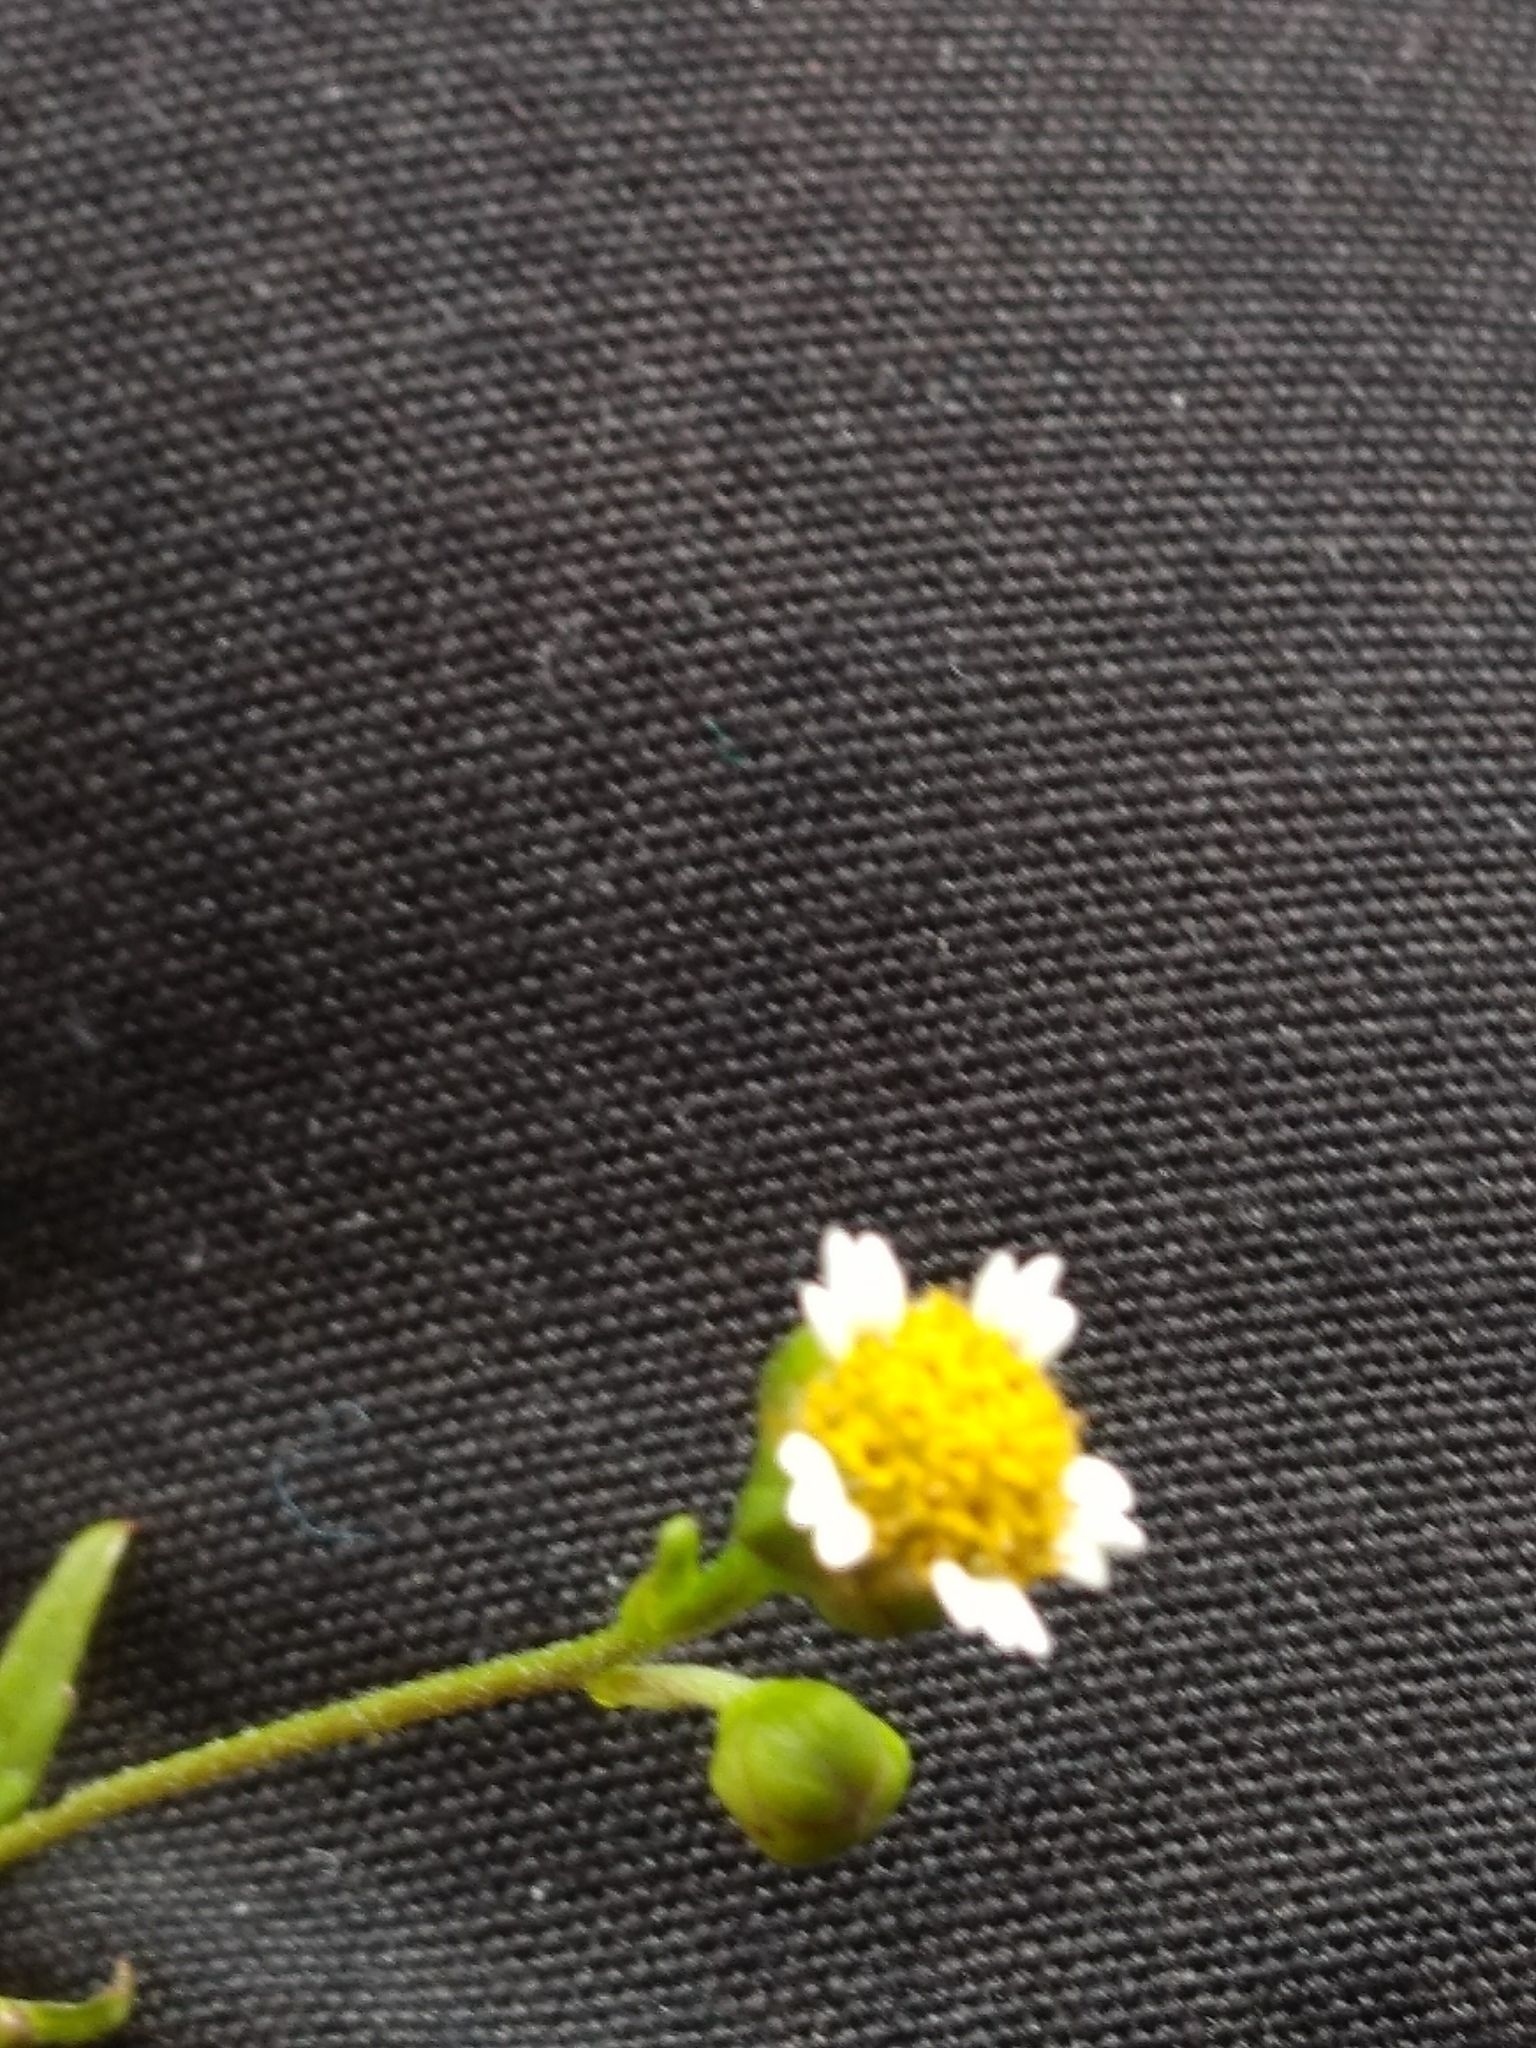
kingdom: Plantae
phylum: Tracheophyta
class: Magnoliopsida
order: Asterales
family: Asteraceae
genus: Galinsoga
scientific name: Galinsoga parviflora
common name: Gallant soldier
